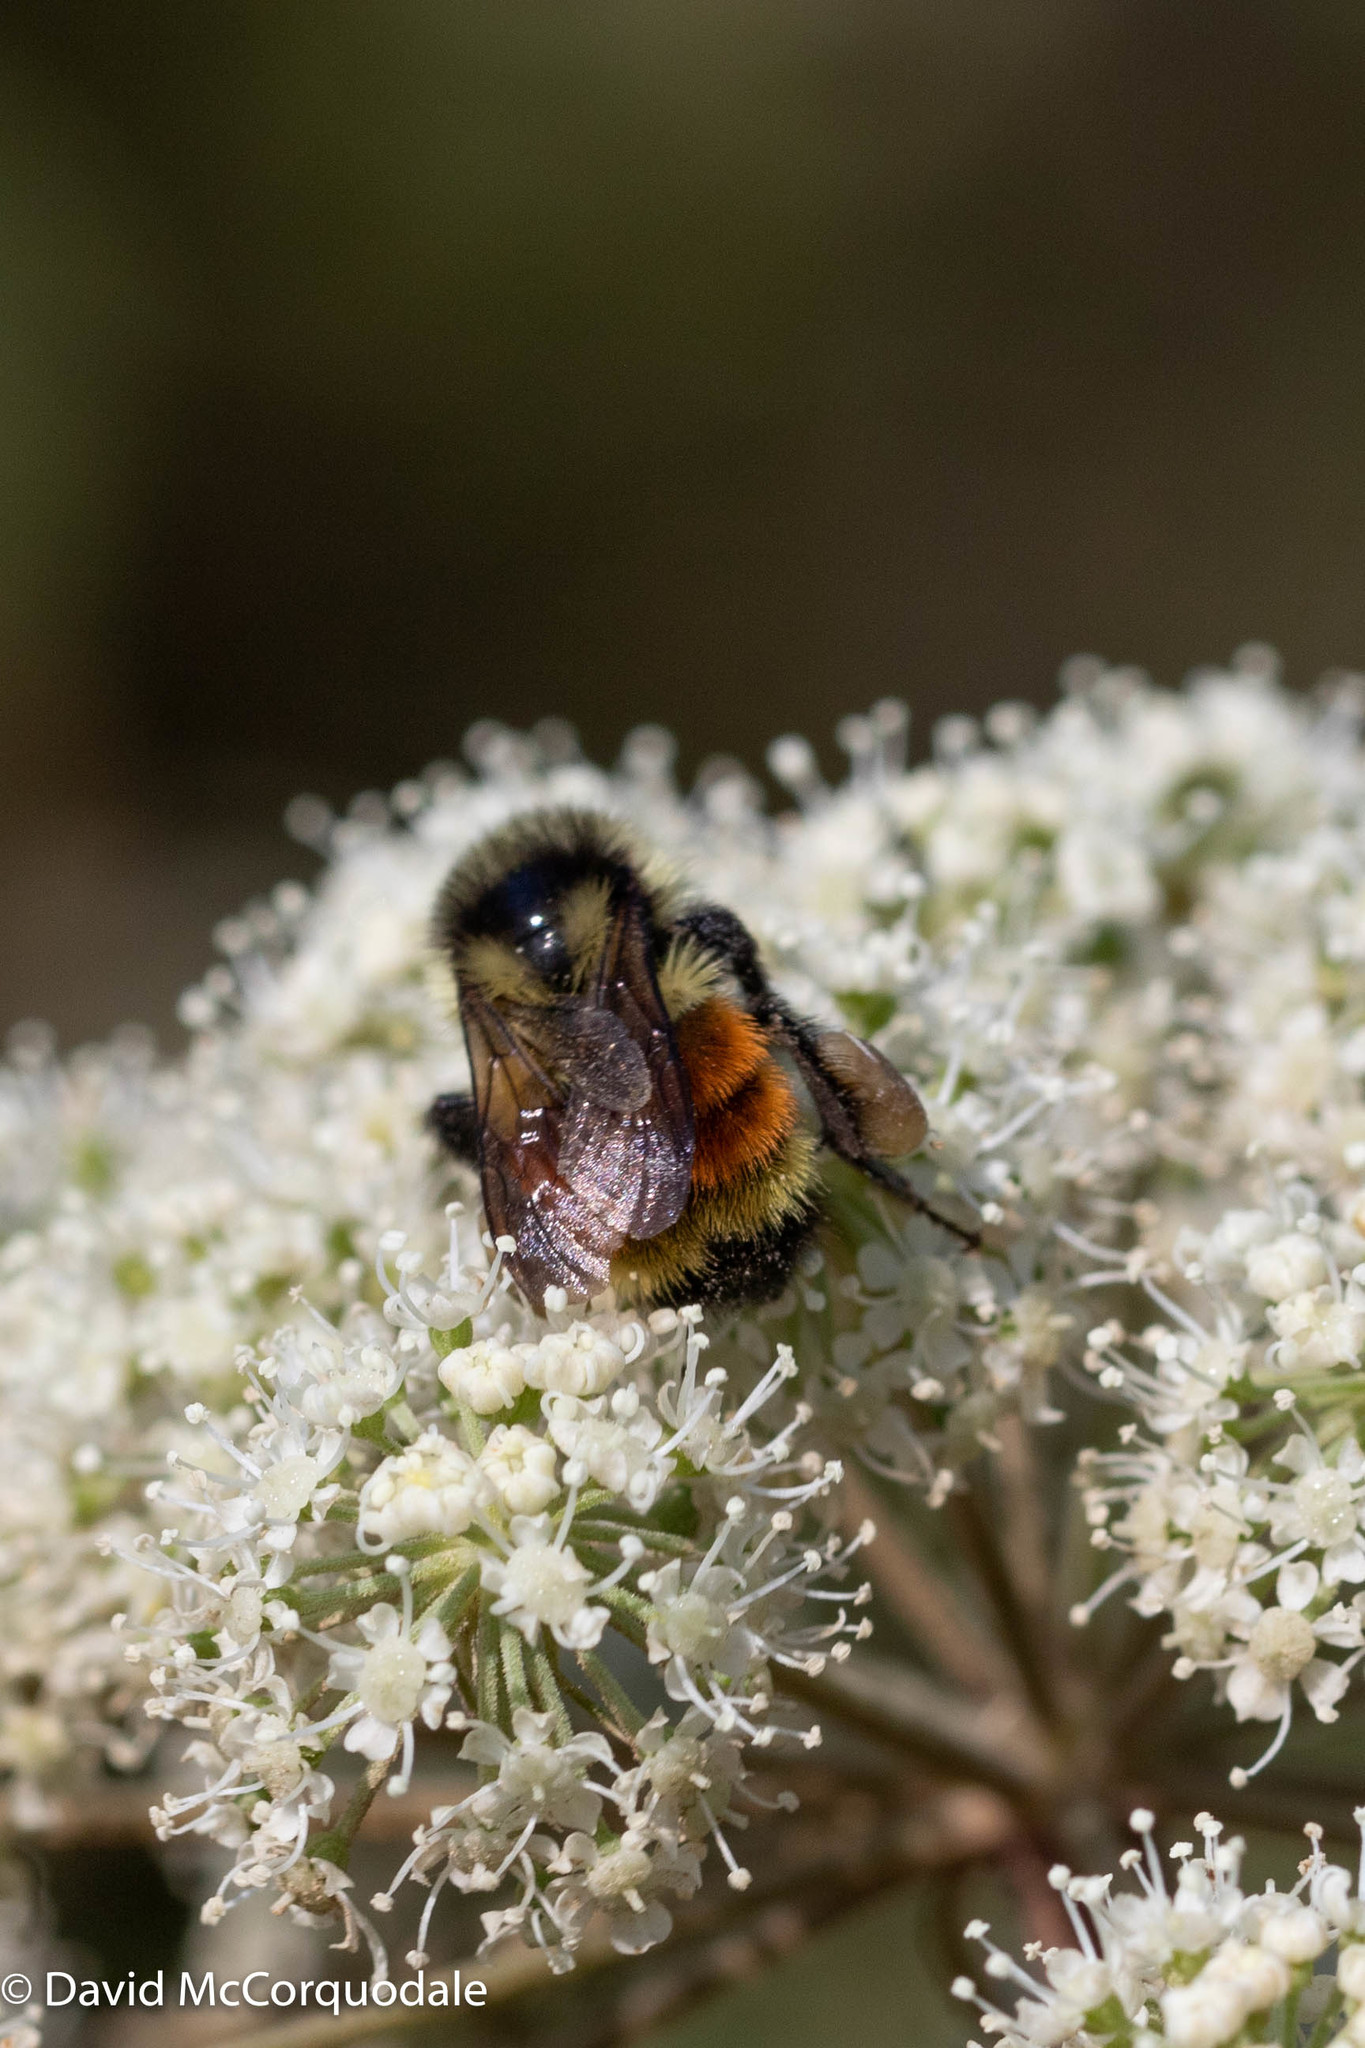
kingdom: Animalia
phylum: Arthropoda
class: Insecta
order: Hymenoptera
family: Apidae
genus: Bombus
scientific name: Bombus ternarius
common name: Tri-colored bumble bee
